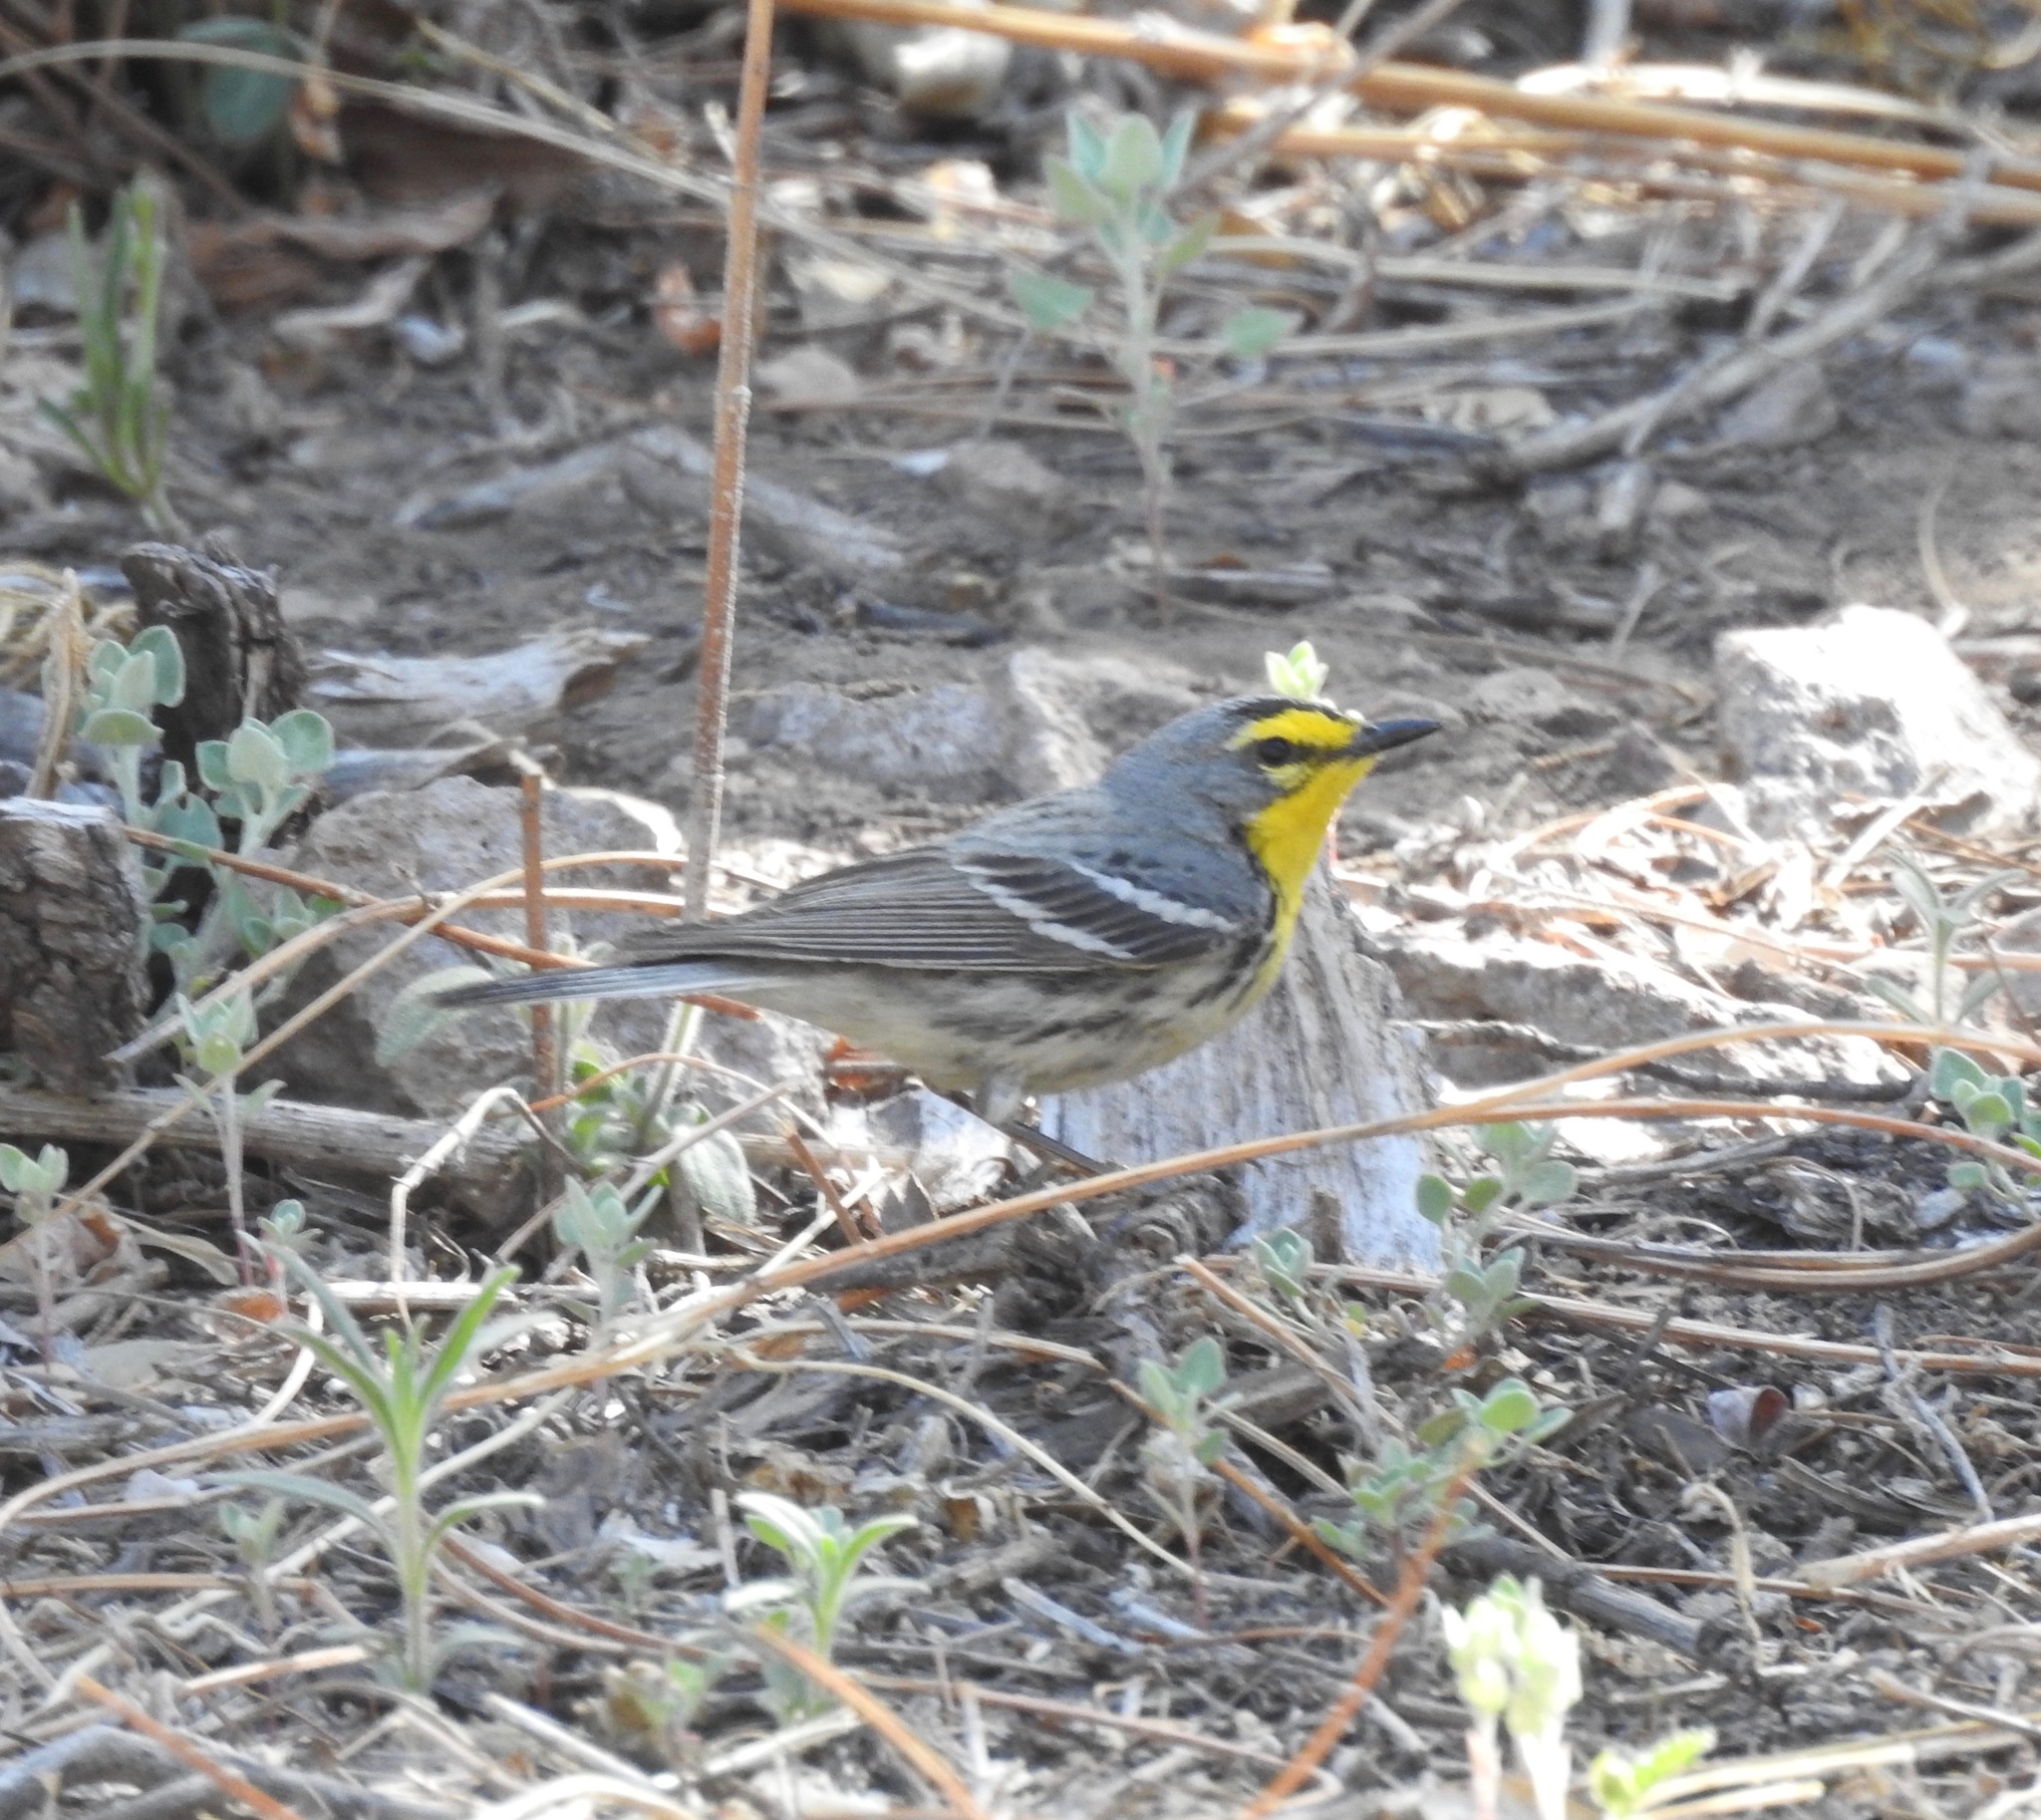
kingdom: Animalia
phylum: Chordata
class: Aves
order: Passeriformes
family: Parulidae
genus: Setophaga
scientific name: Setophaga graciae
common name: Grace's warbler
